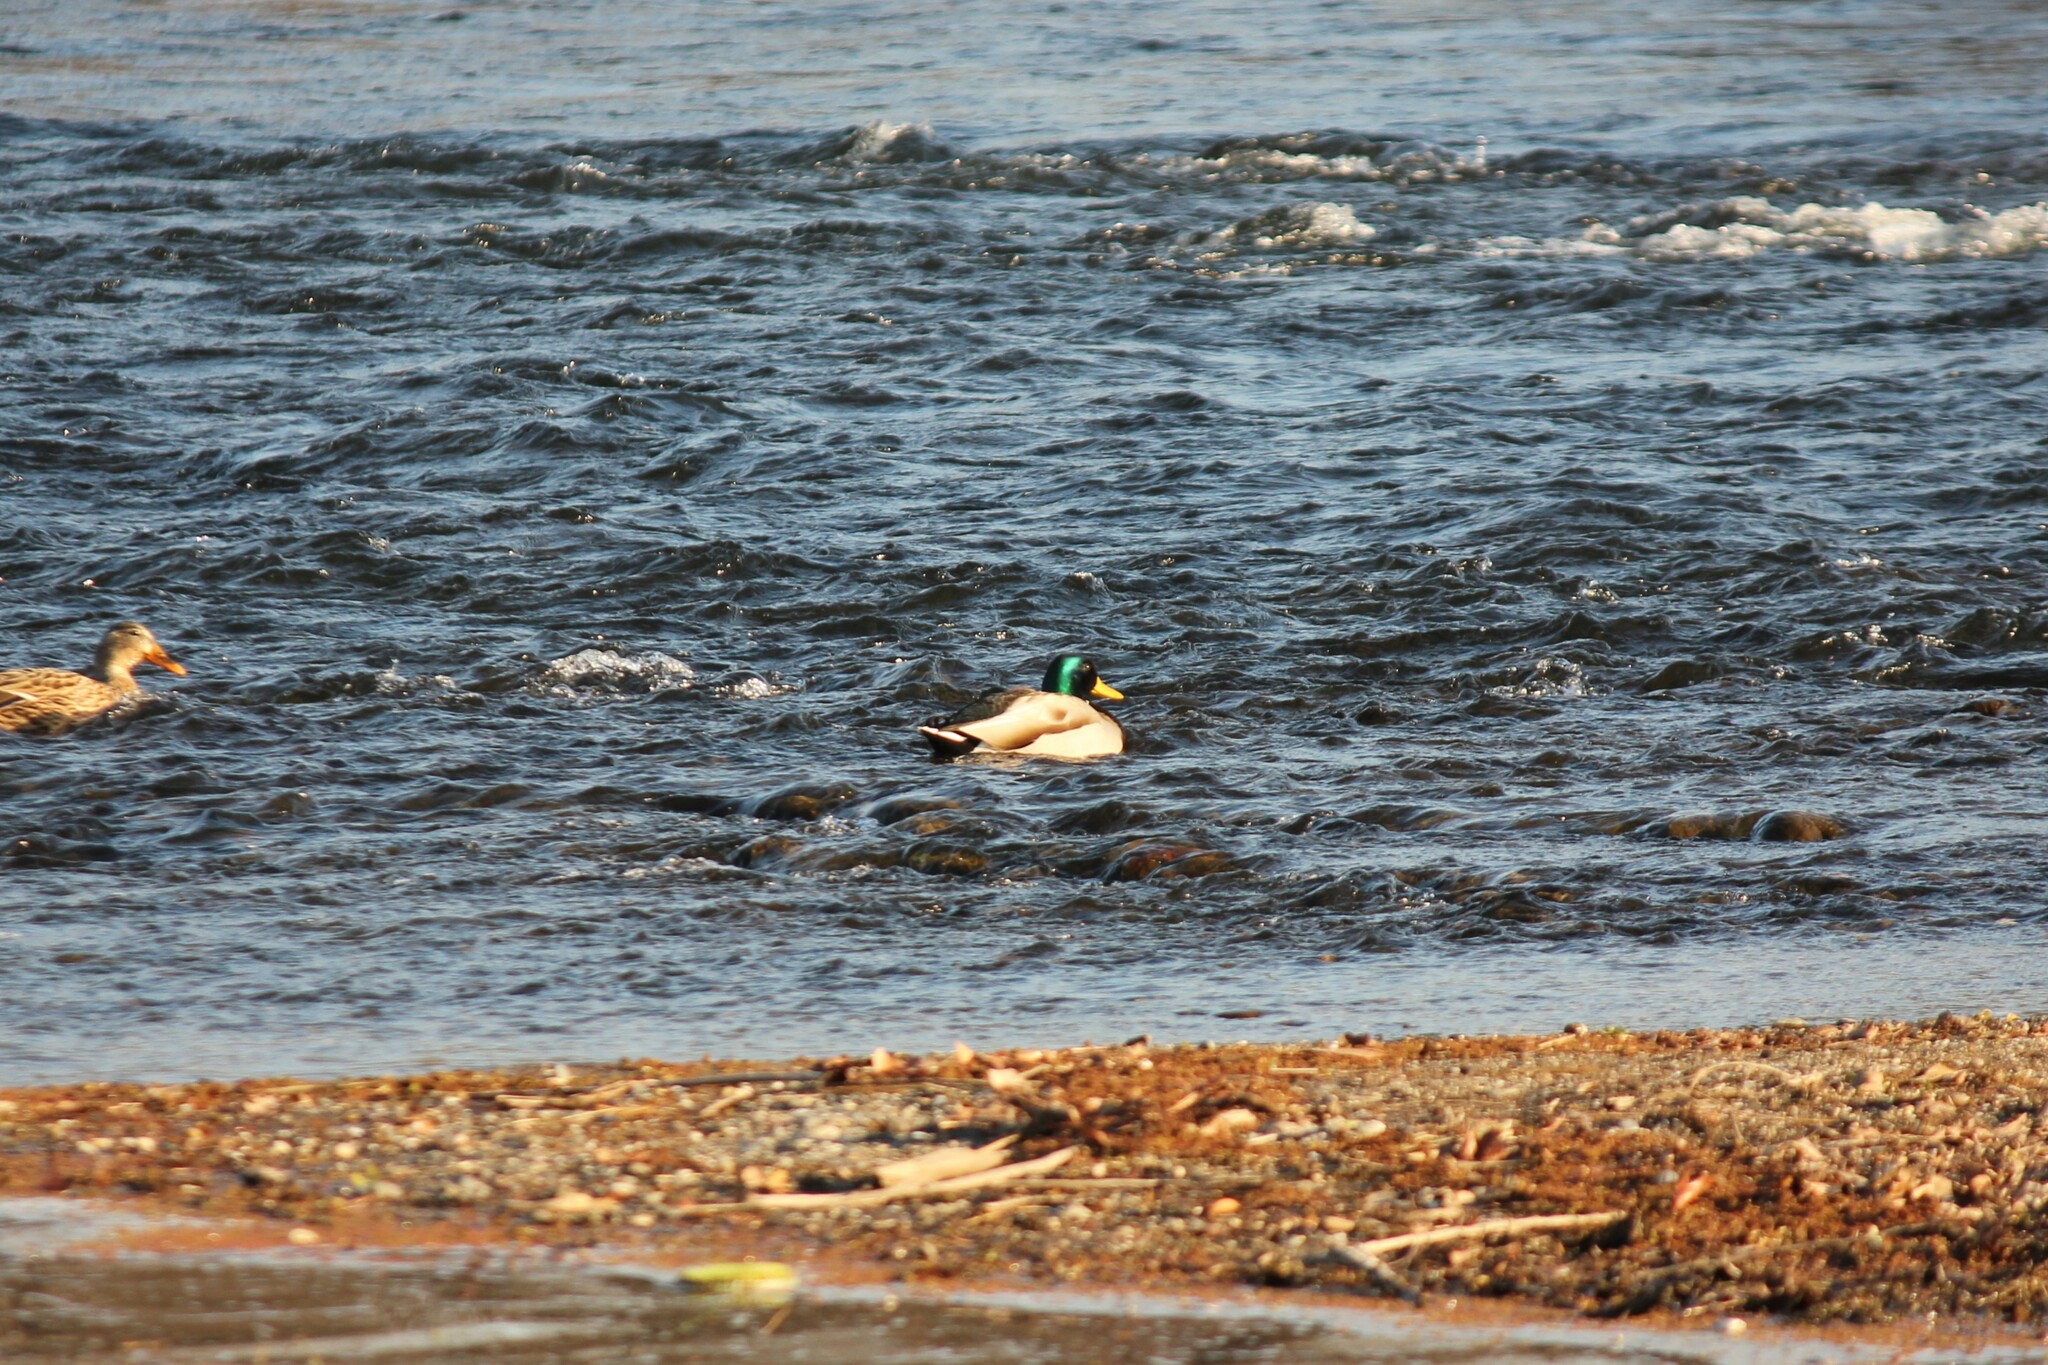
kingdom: Animalia
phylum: Chordata
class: Aves
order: Anseriformes
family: Anatidae
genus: Anas
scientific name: Anas platyrhynchos
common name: Mallard
